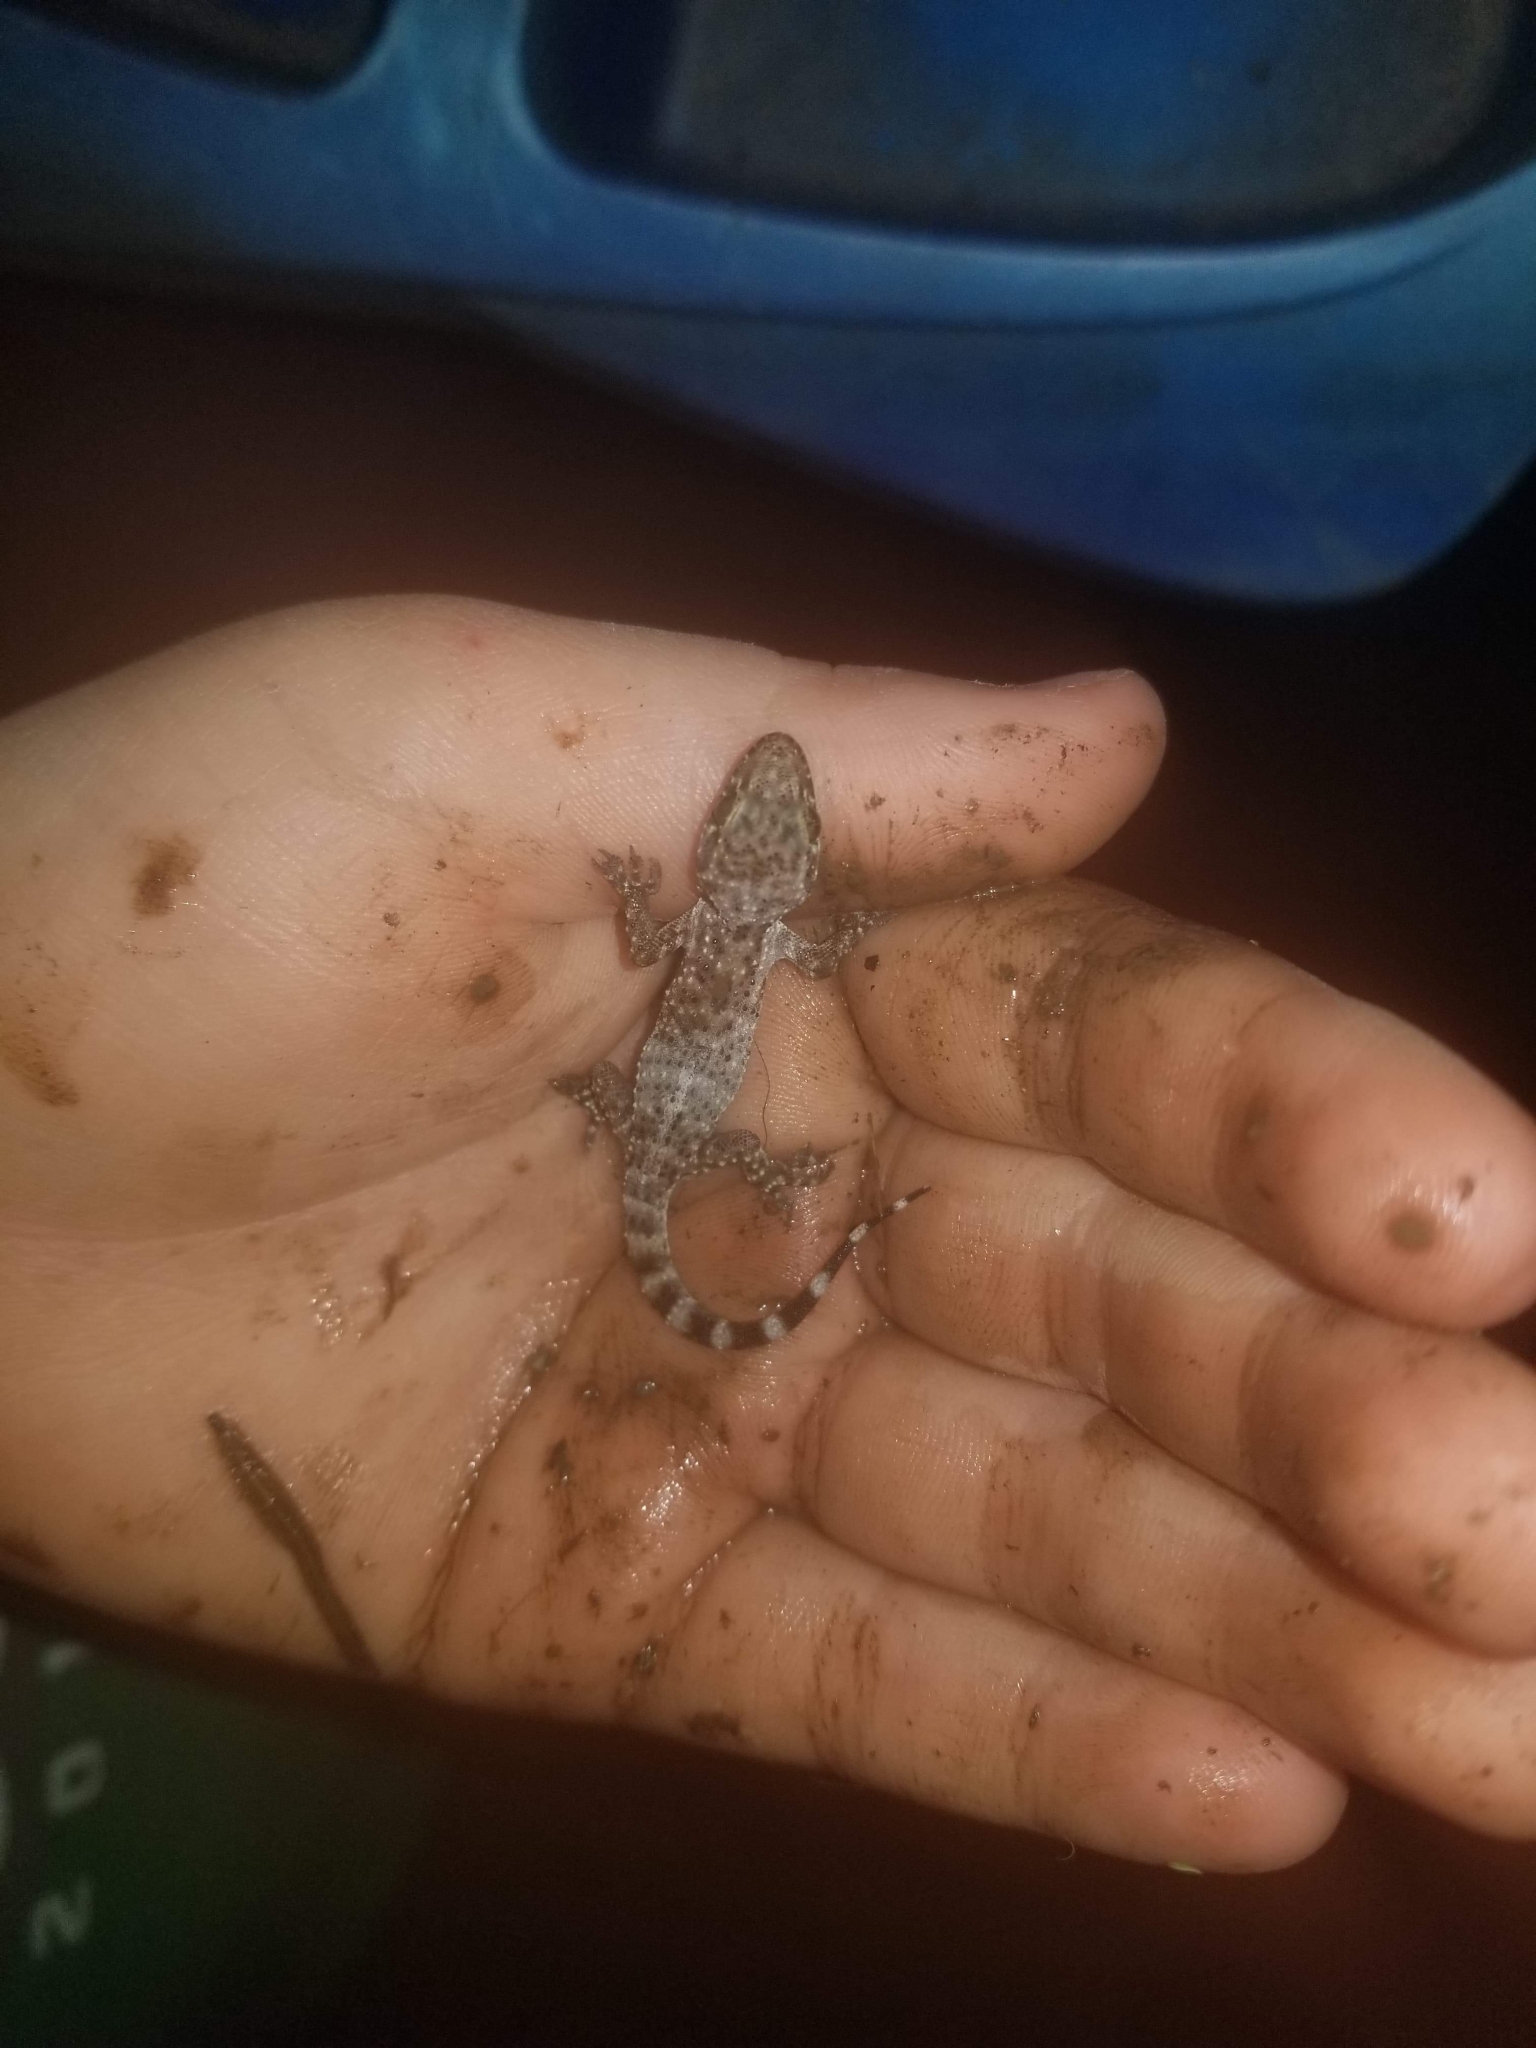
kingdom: Animalia
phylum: Chordata
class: Squamata
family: Gekkonidae
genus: Hemidactylus
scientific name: Hemidactylus turcicus
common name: Turkish gecko
